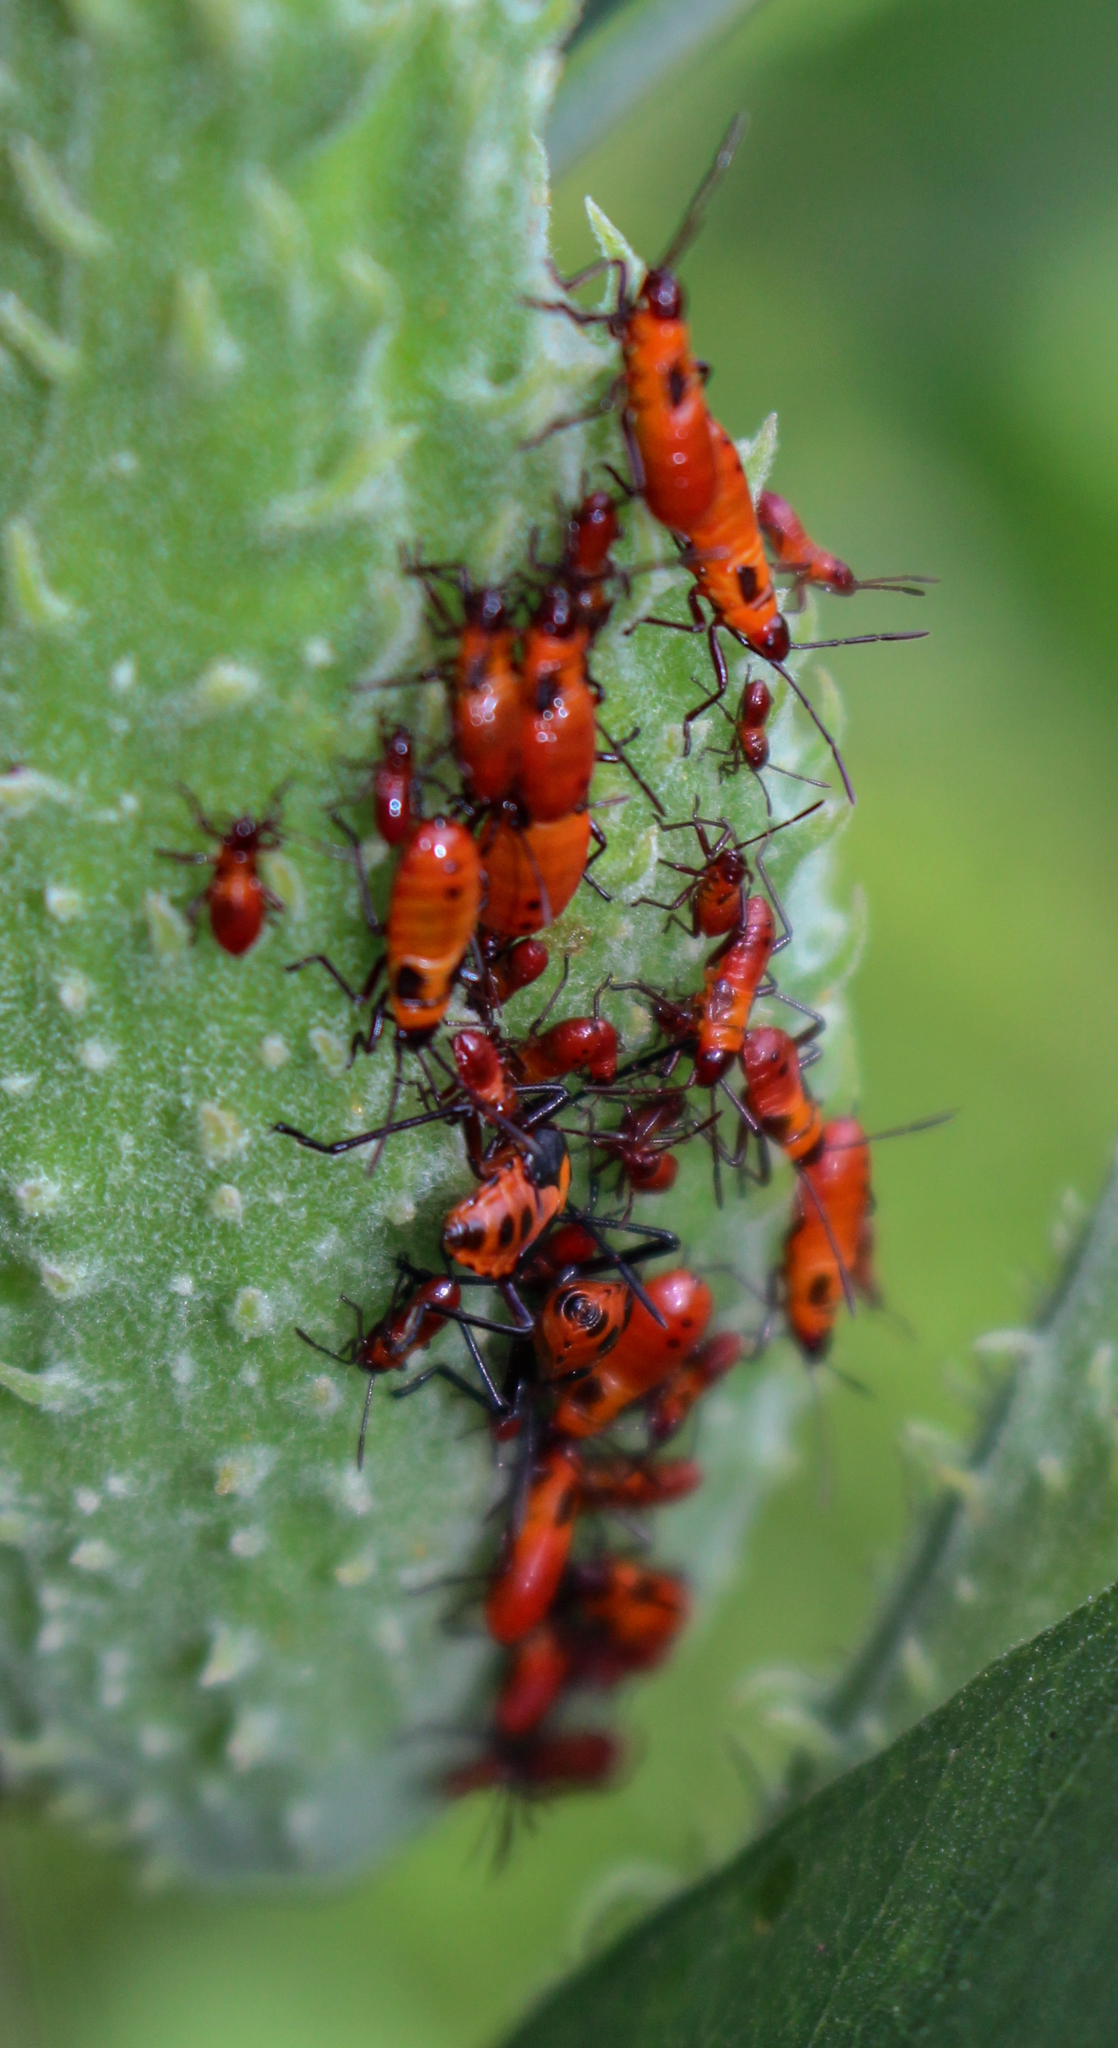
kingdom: Animalia
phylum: Arthropoda
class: Insecta
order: Hemiptera
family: Lygaeidae
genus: Oncopeltus
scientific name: Oncopeltus fasciatus
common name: Large milkweed bug
